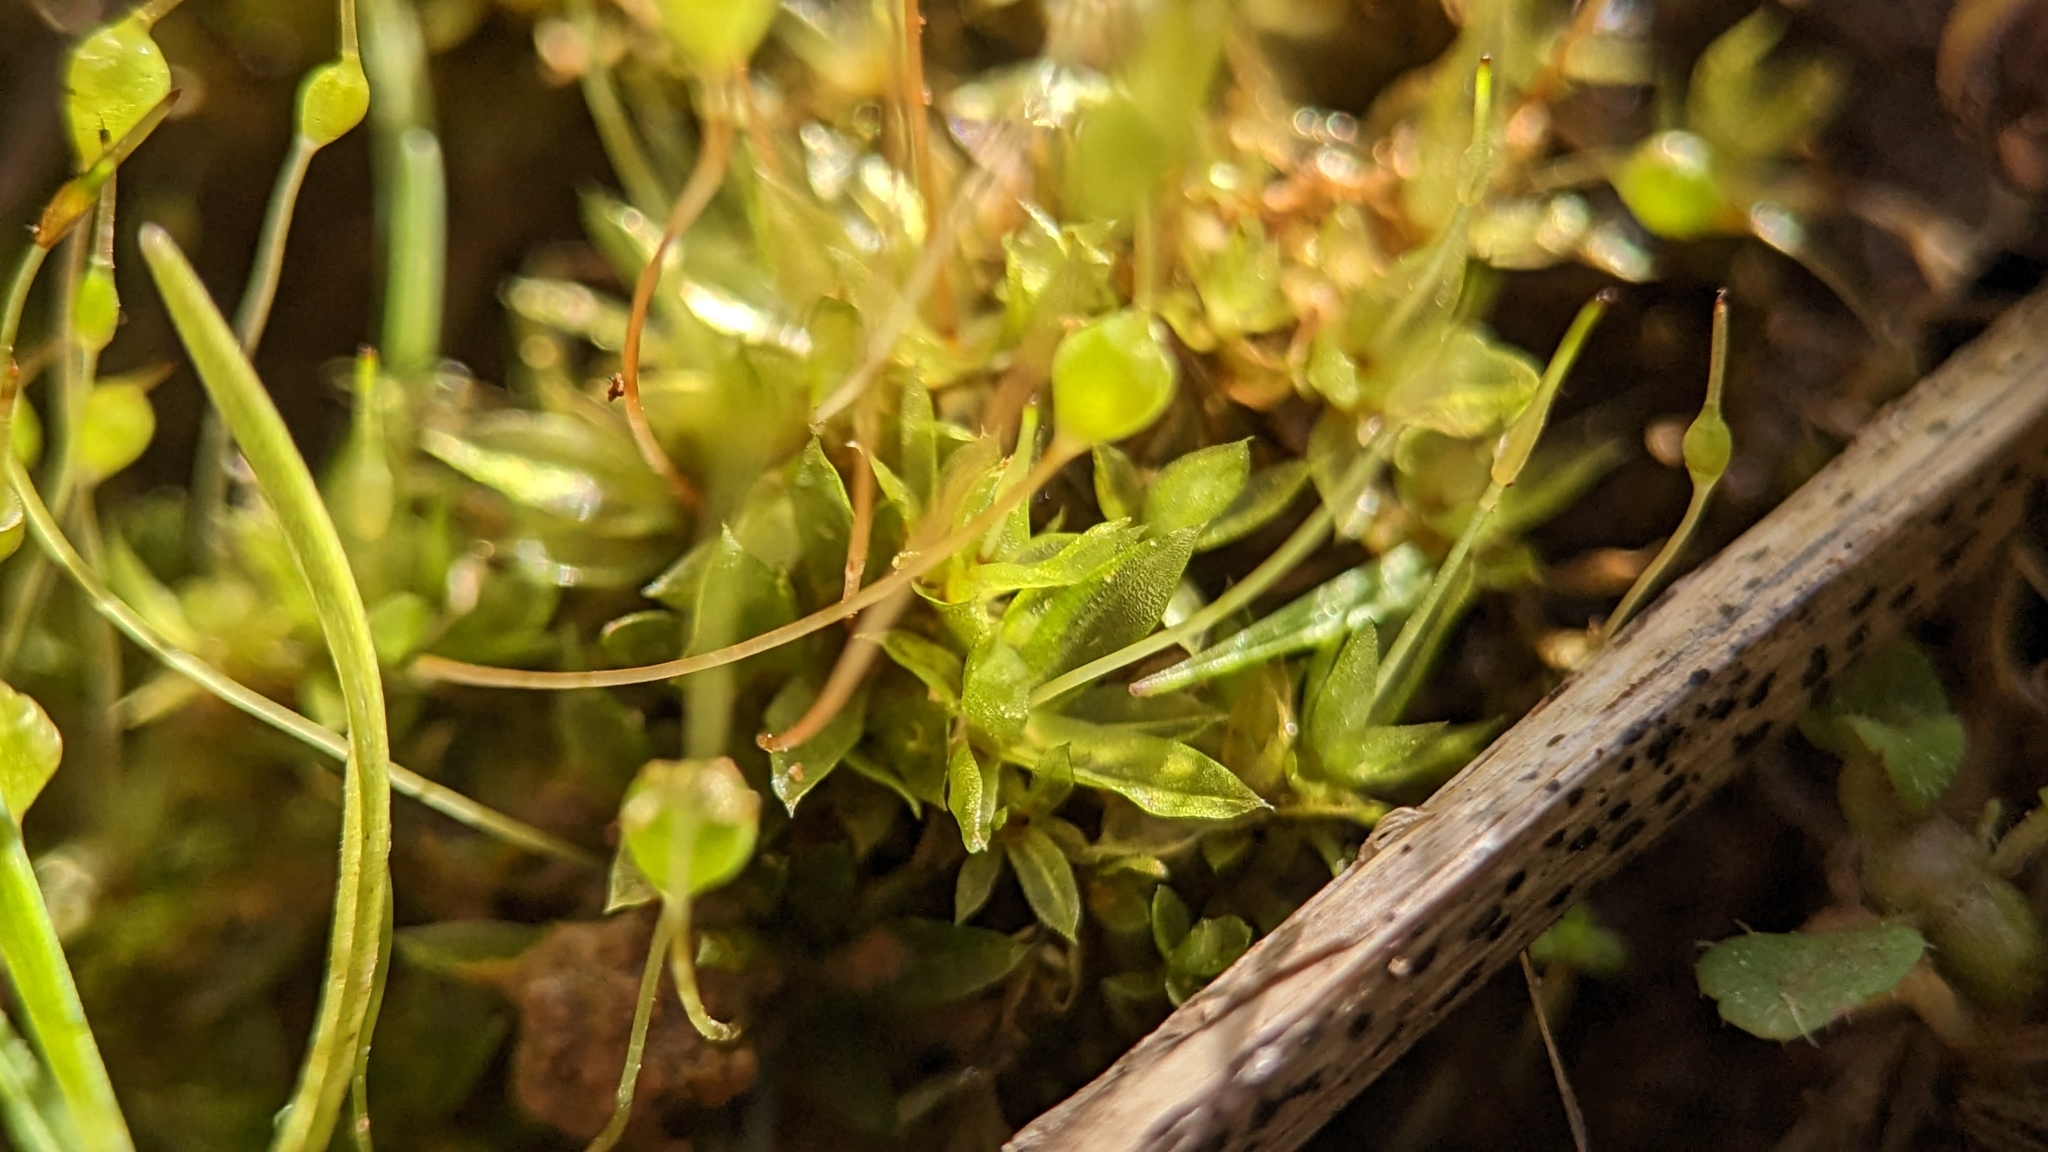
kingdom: Plantae
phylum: Bryophyta
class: Bryopsida
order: Funariales
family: Funariaceae
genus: Physcomitrium
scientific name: Physcomitrium pyriforme
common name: Common bladder-moss
